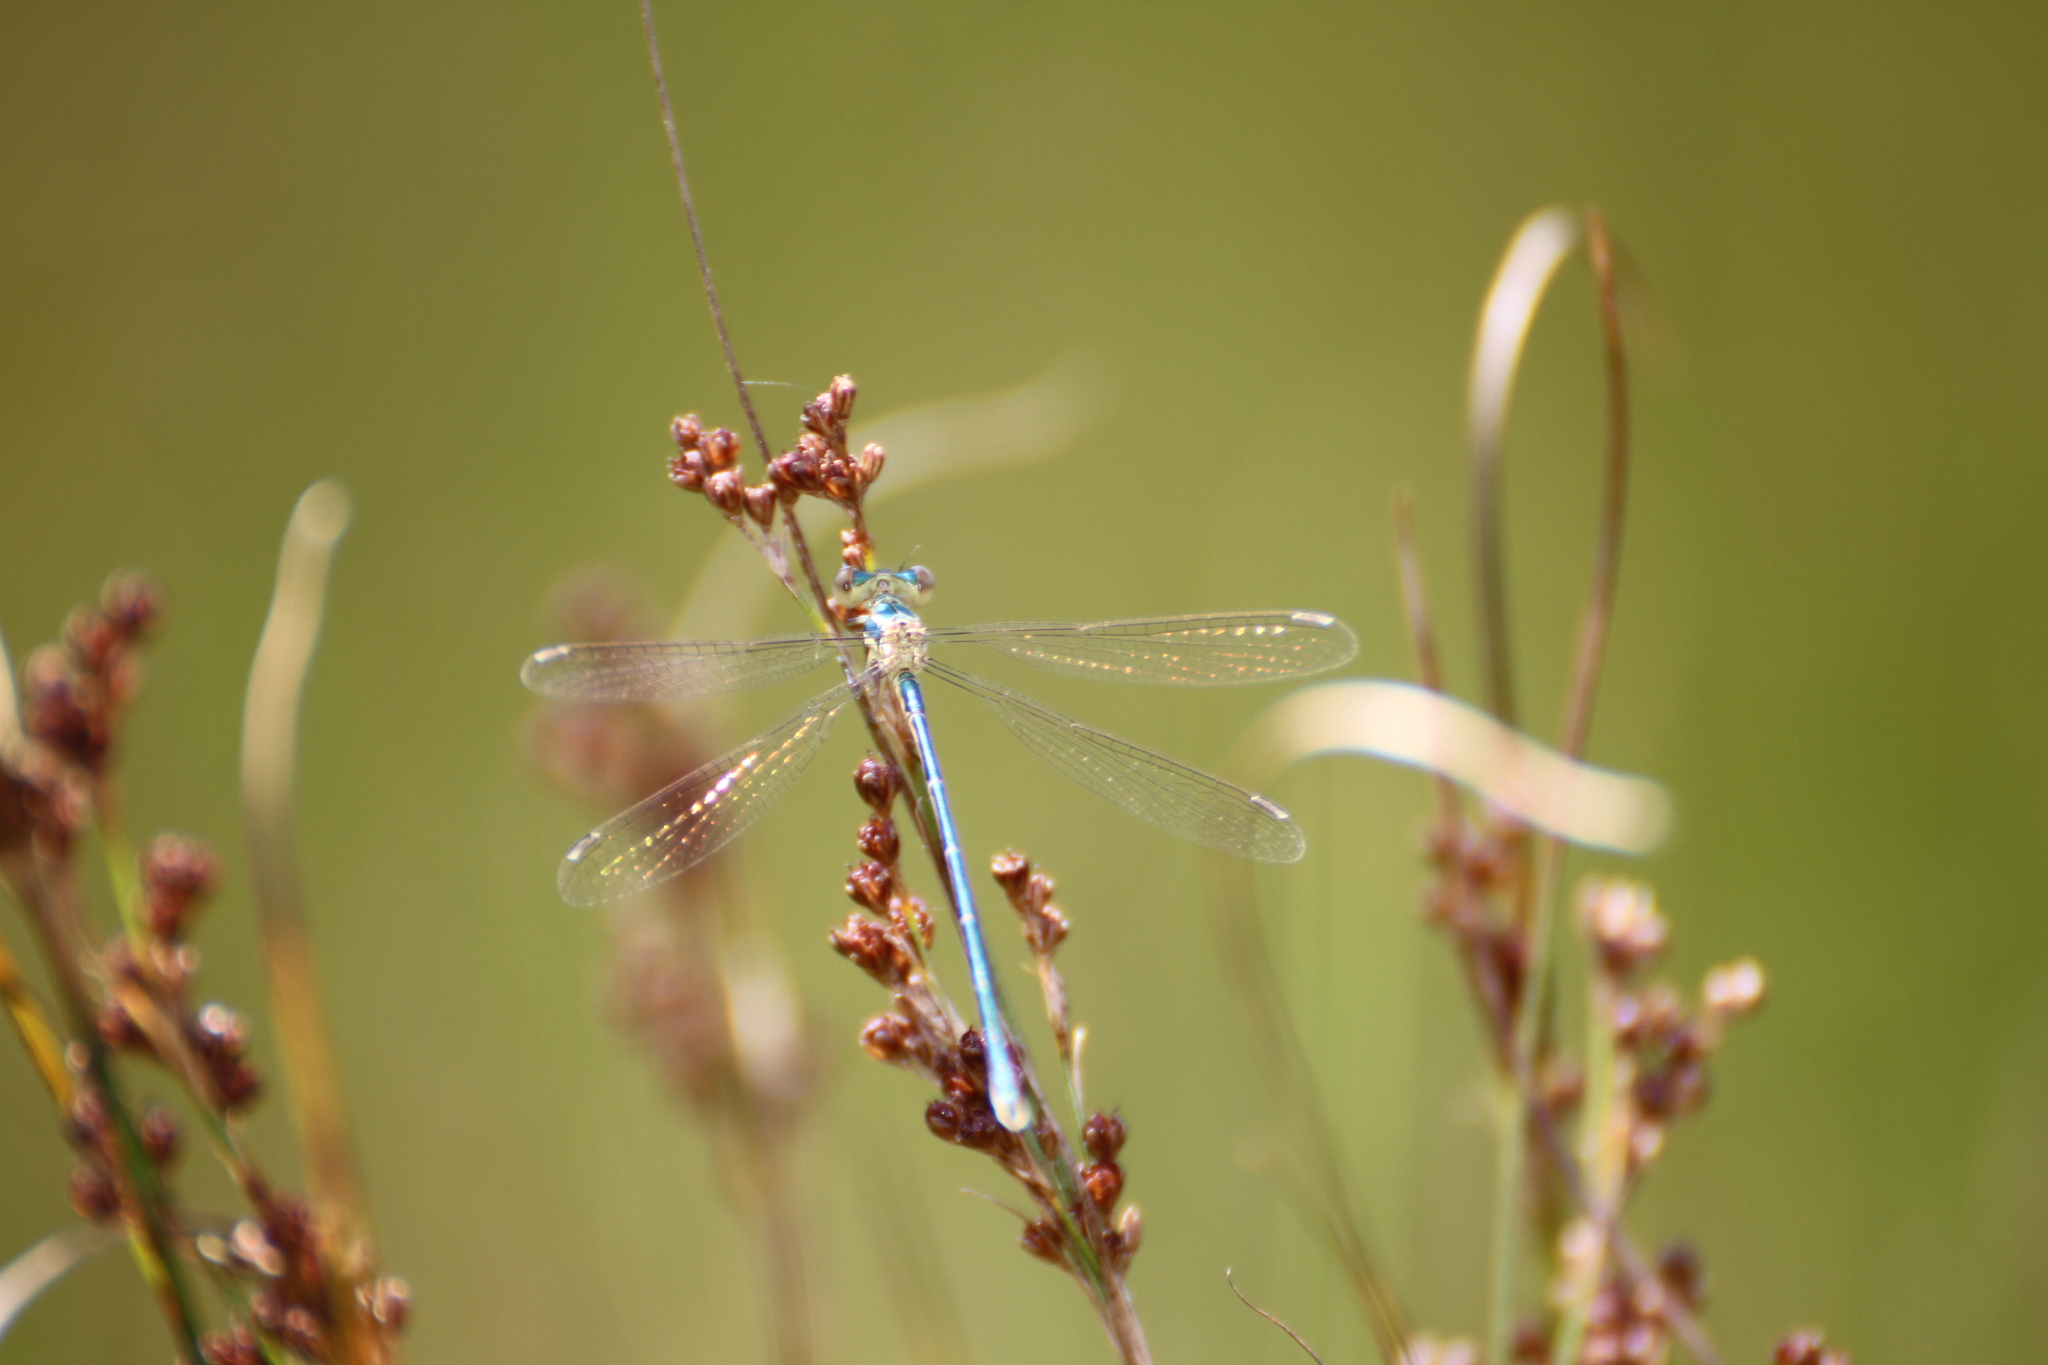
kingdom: Animalia
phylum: Arthropoda
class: Insecta
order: Odonata
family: Lestidae
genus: Lestes
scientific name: Lestes virens
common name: Small emerald spreadwing
